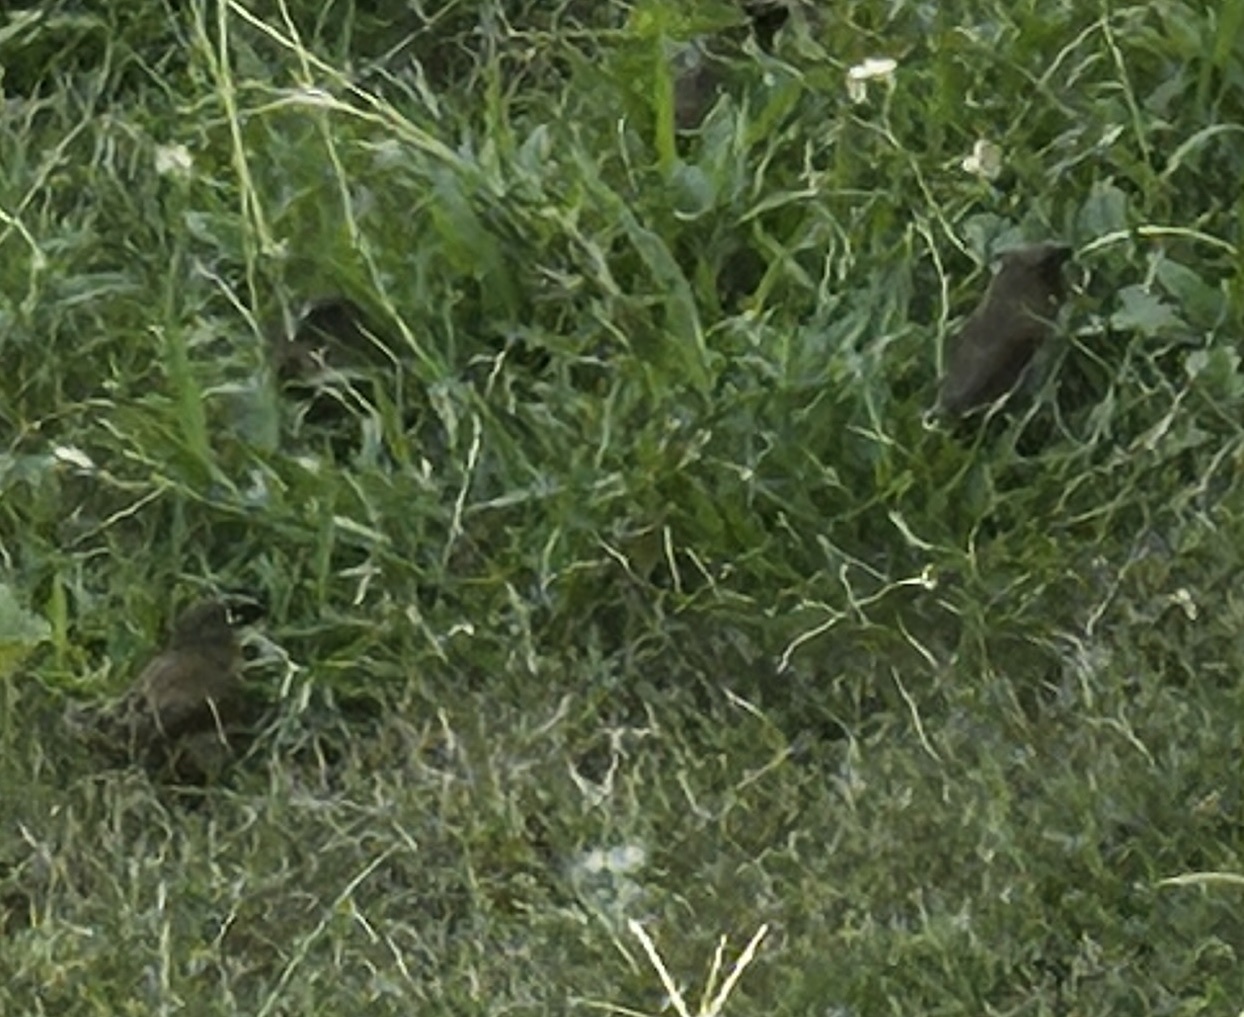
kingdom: Animalia
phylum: Chordata
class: Aves
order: Passeriformes
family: Estrildidae
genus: Lonchura
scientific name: Lonchura punctulata
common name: Scaly-breasted munia
